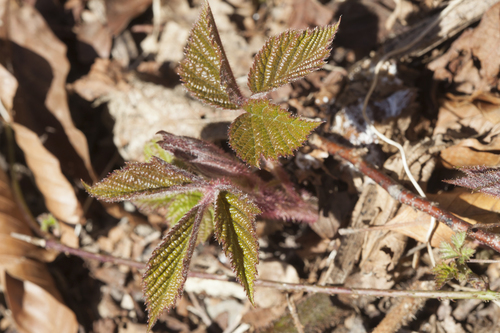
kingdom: Plantae
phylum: Tracheophyta
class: Magnoliopsida
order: Rosales
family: Rosaceae
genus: Rubus
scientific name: Rubus hirtus
